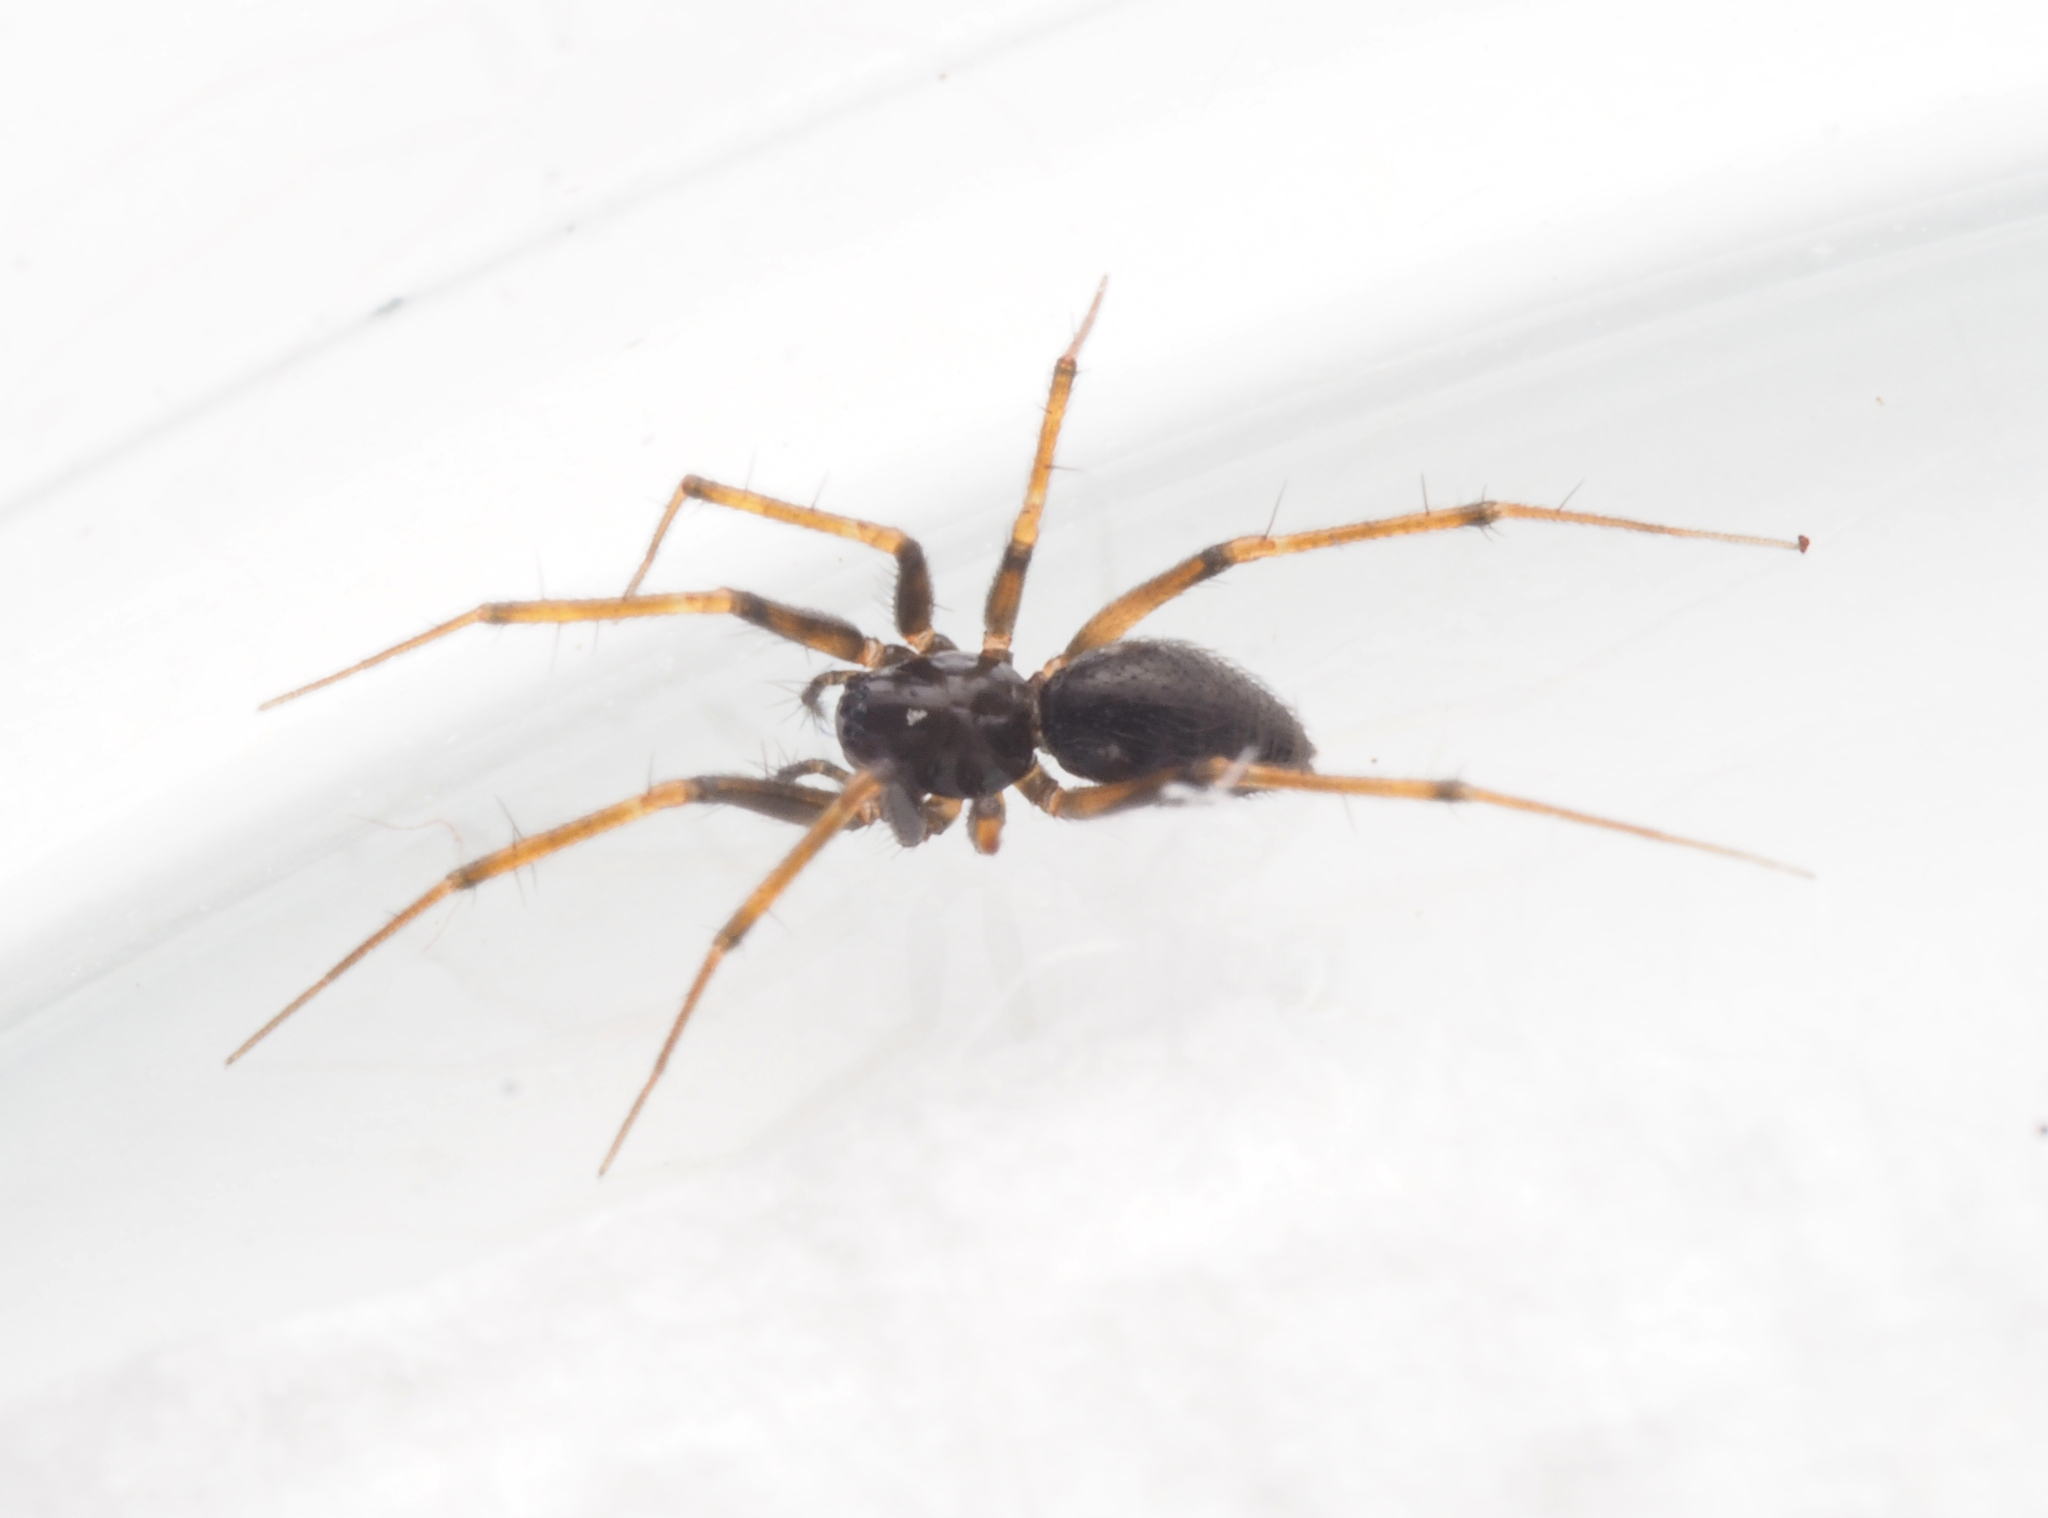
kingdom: Animalia
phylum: Arthropoda
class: Arachnida
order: Araneae
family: Linyphiidae
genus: Laetesia
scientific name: Laetesia
